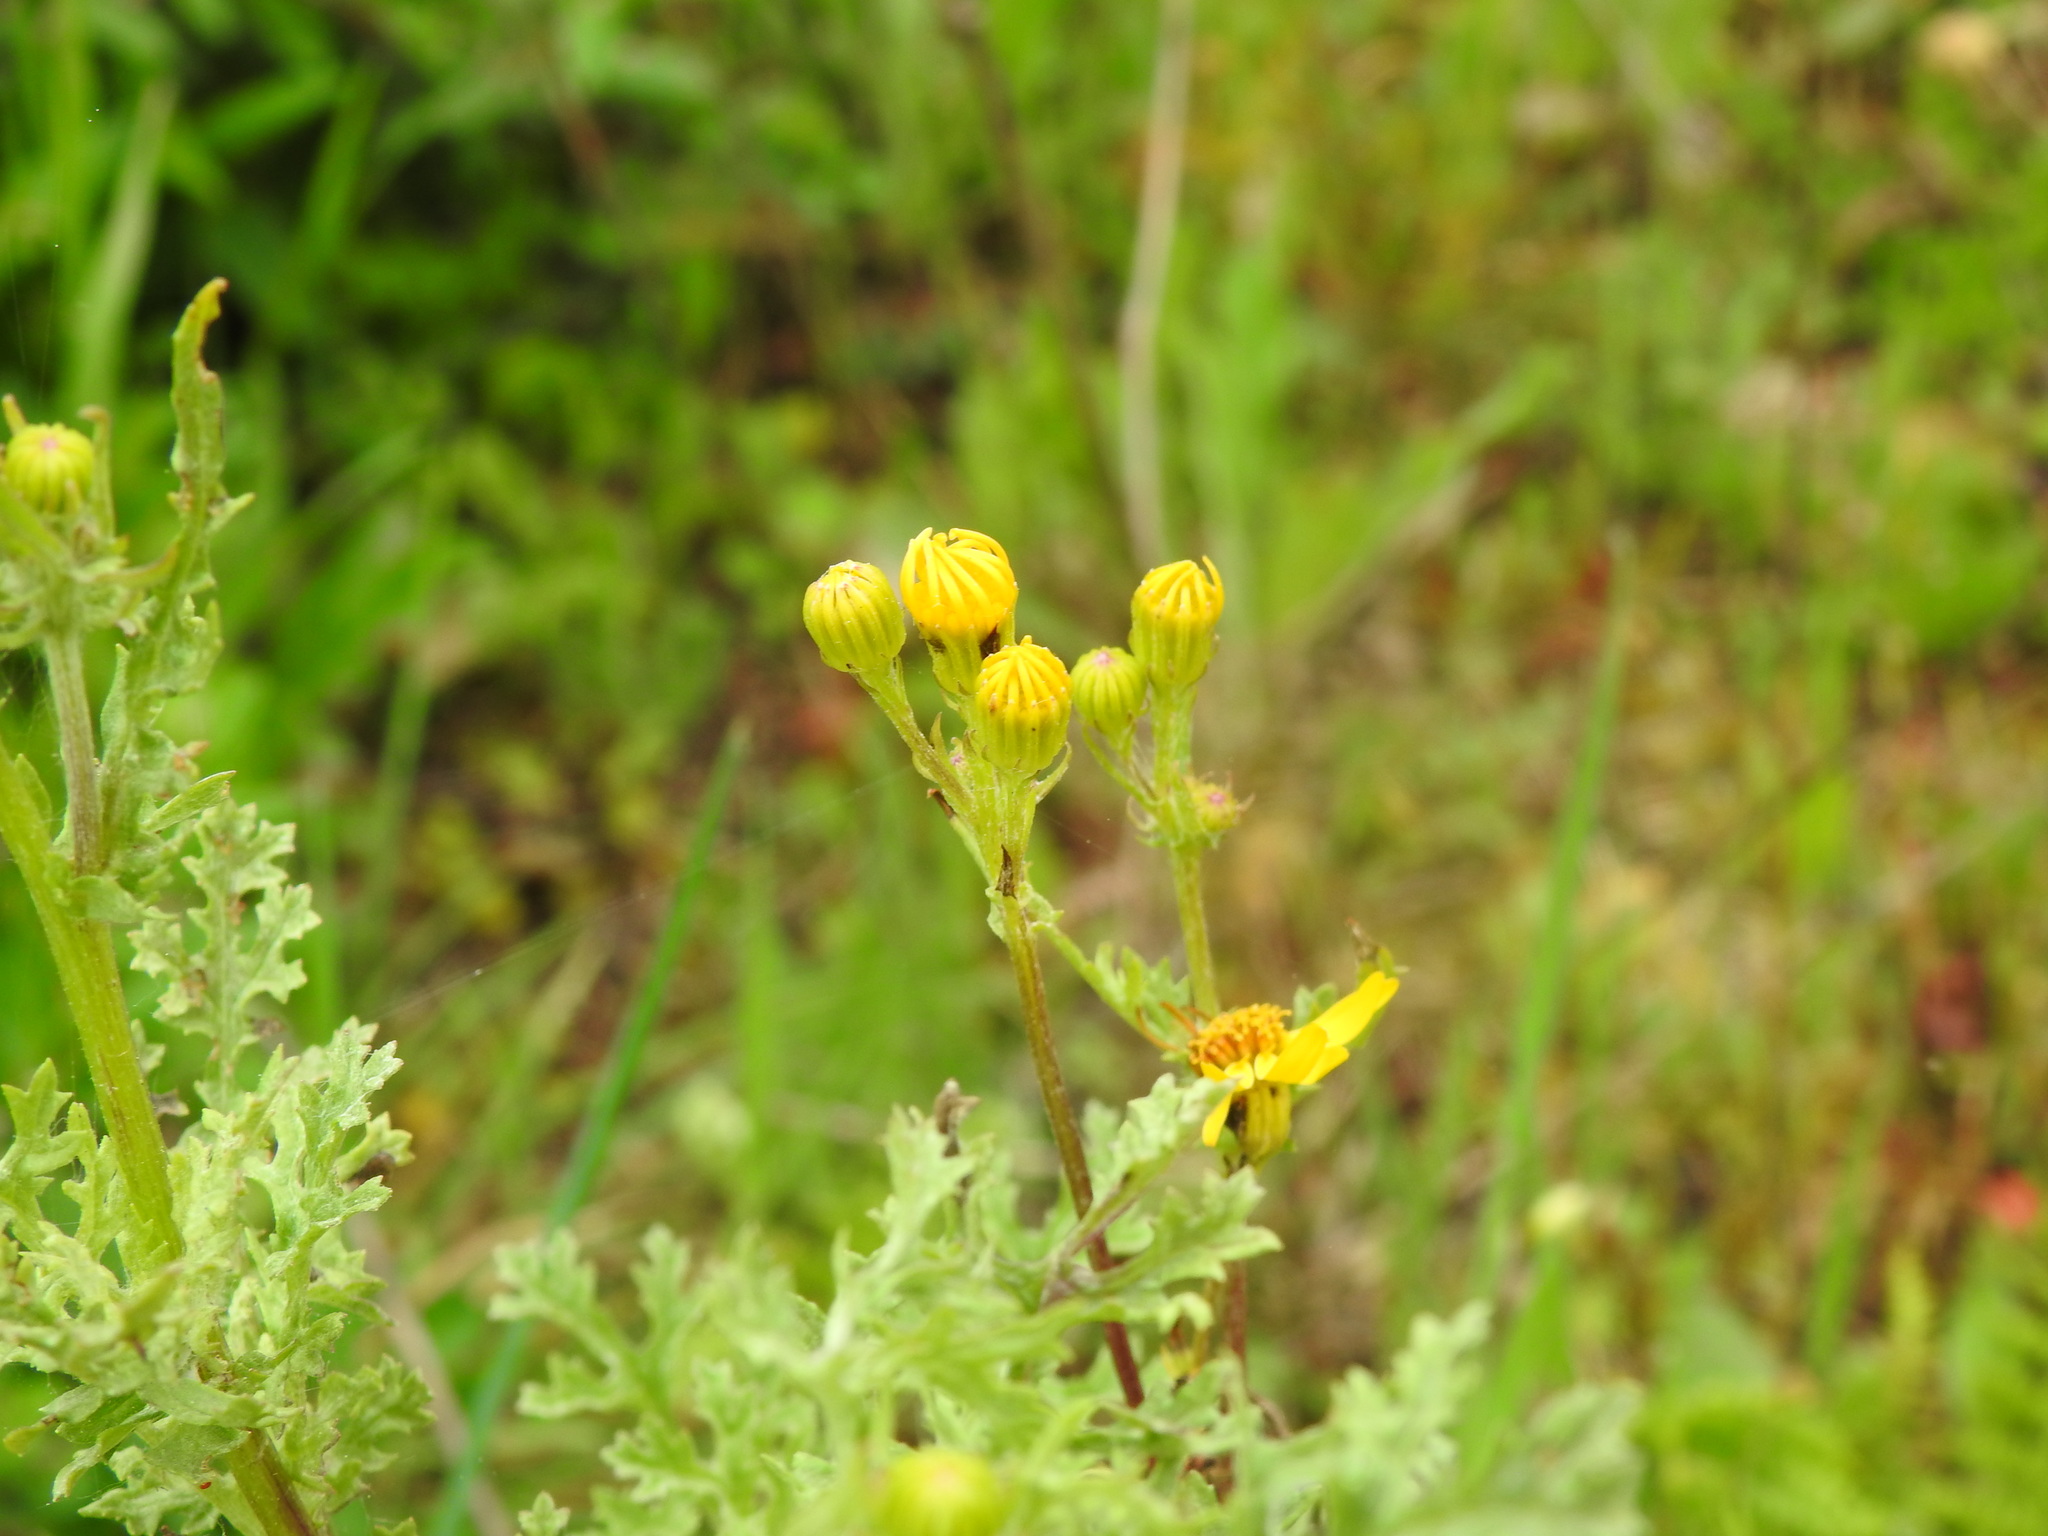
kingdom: Plantae
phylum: Tracheophyta
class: Magnoliopsida
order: Asterales
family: Asteraceae
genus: Jacobaea
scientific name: Jacobaea vulgaris
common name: Stinking willie
